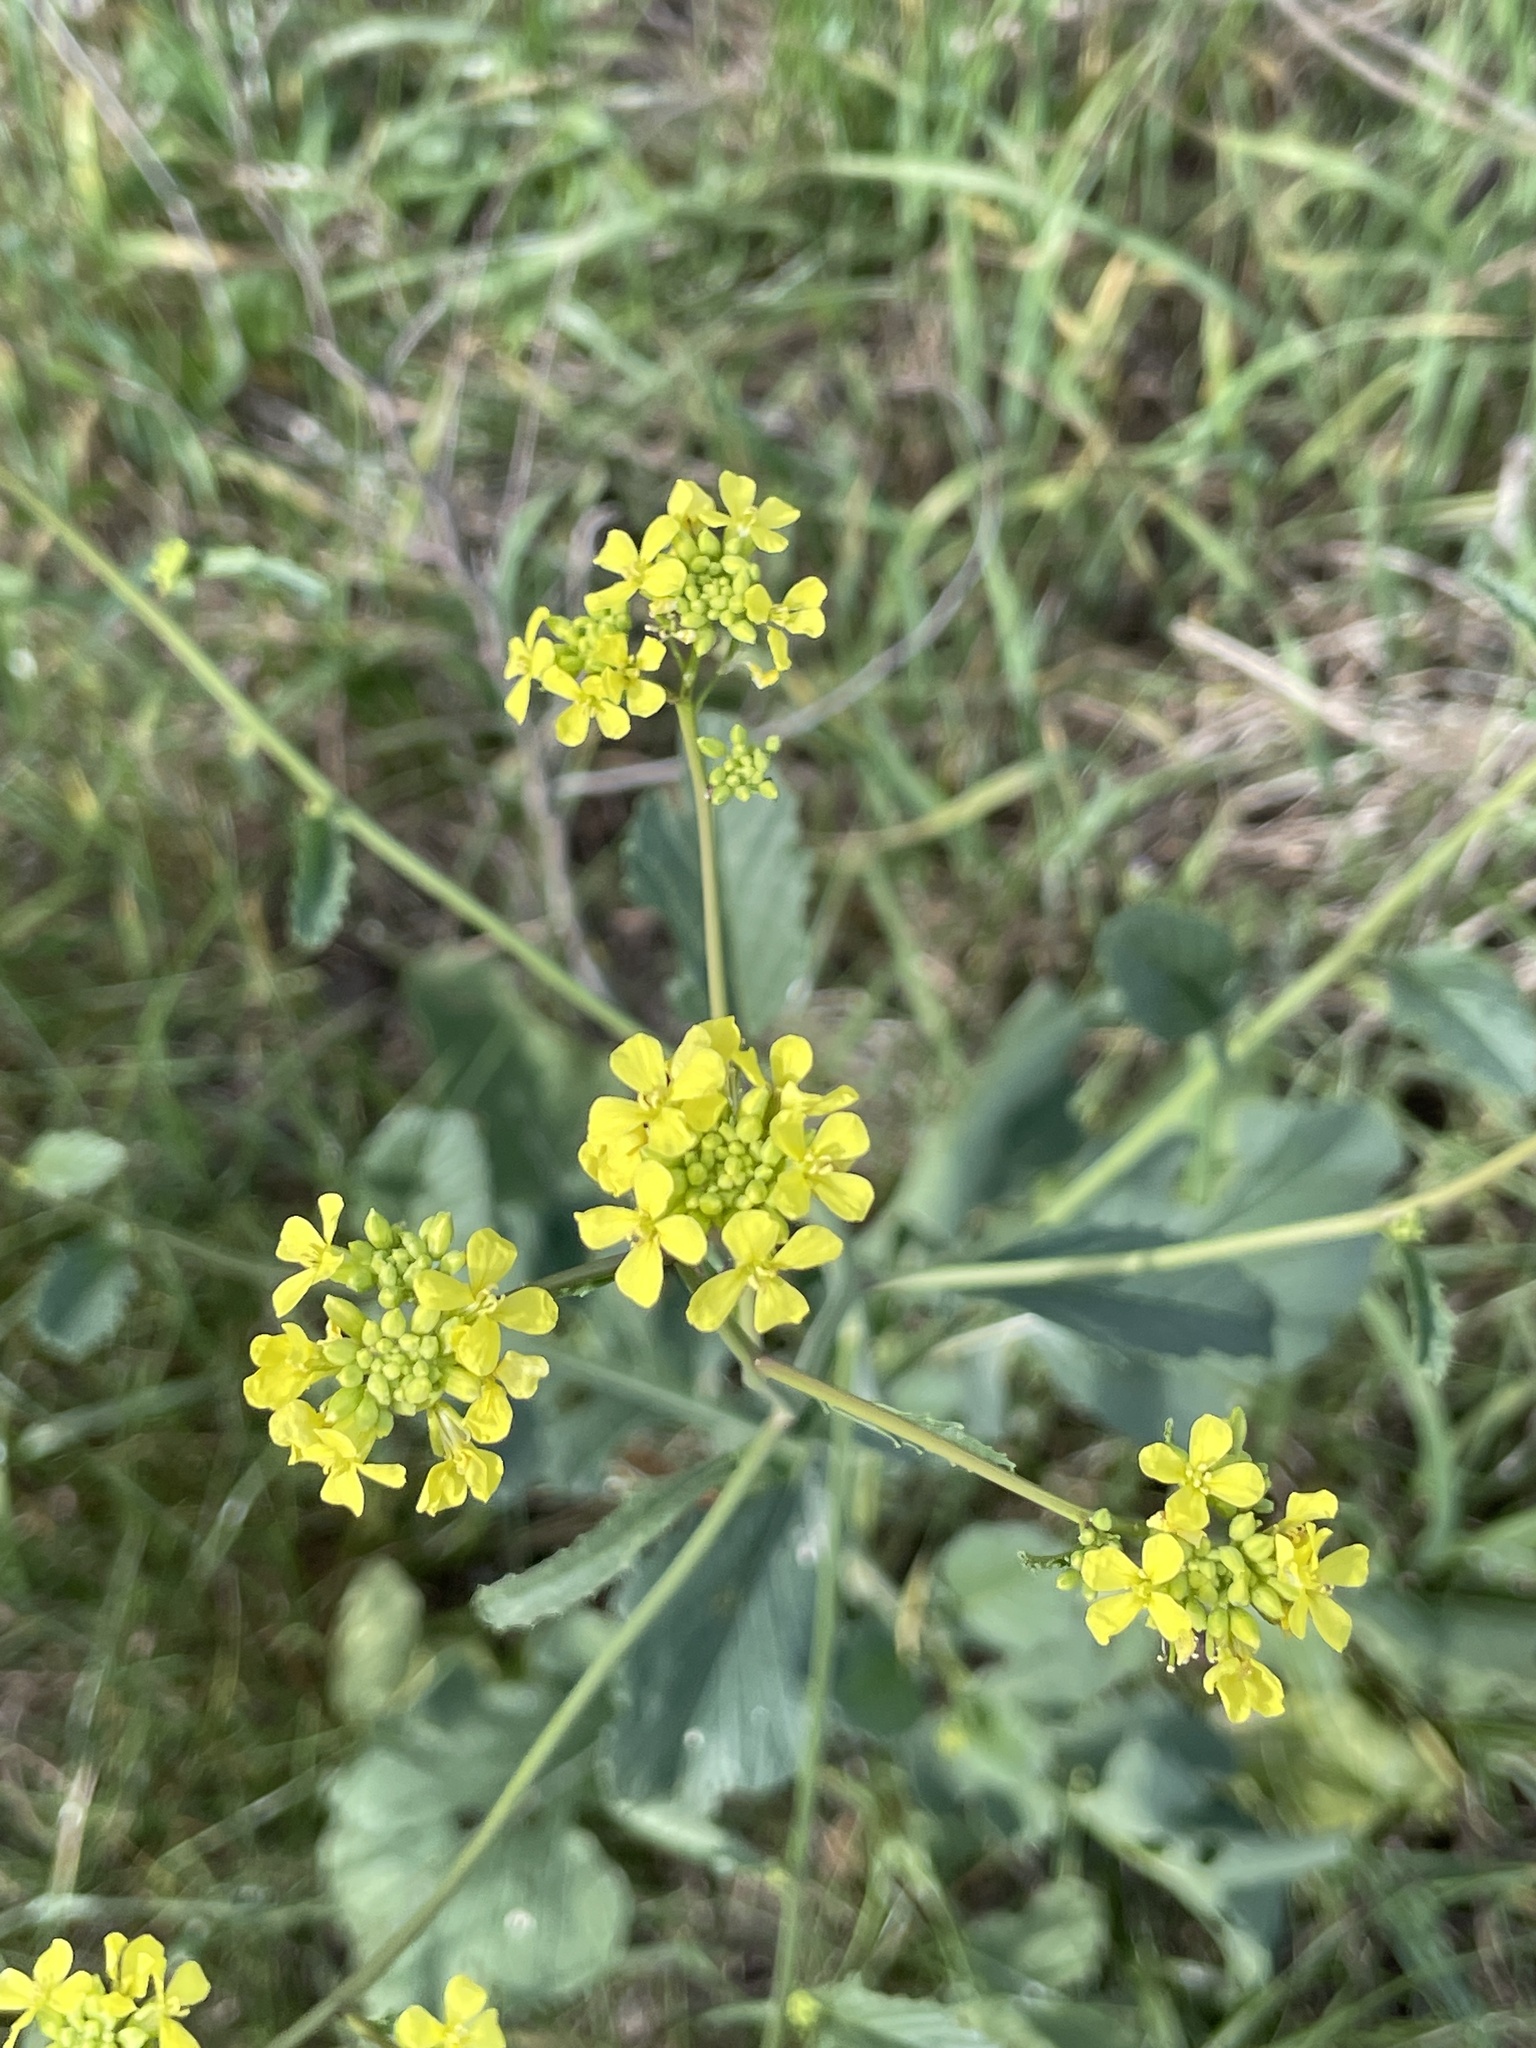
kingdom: Plantae
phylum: Tracheophyta
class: Magnoliopsida
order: Brassicales
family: Brassicaceae
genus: Rapistrum
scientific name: Rapistrum rugosum
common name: Annual bastardcabbage
